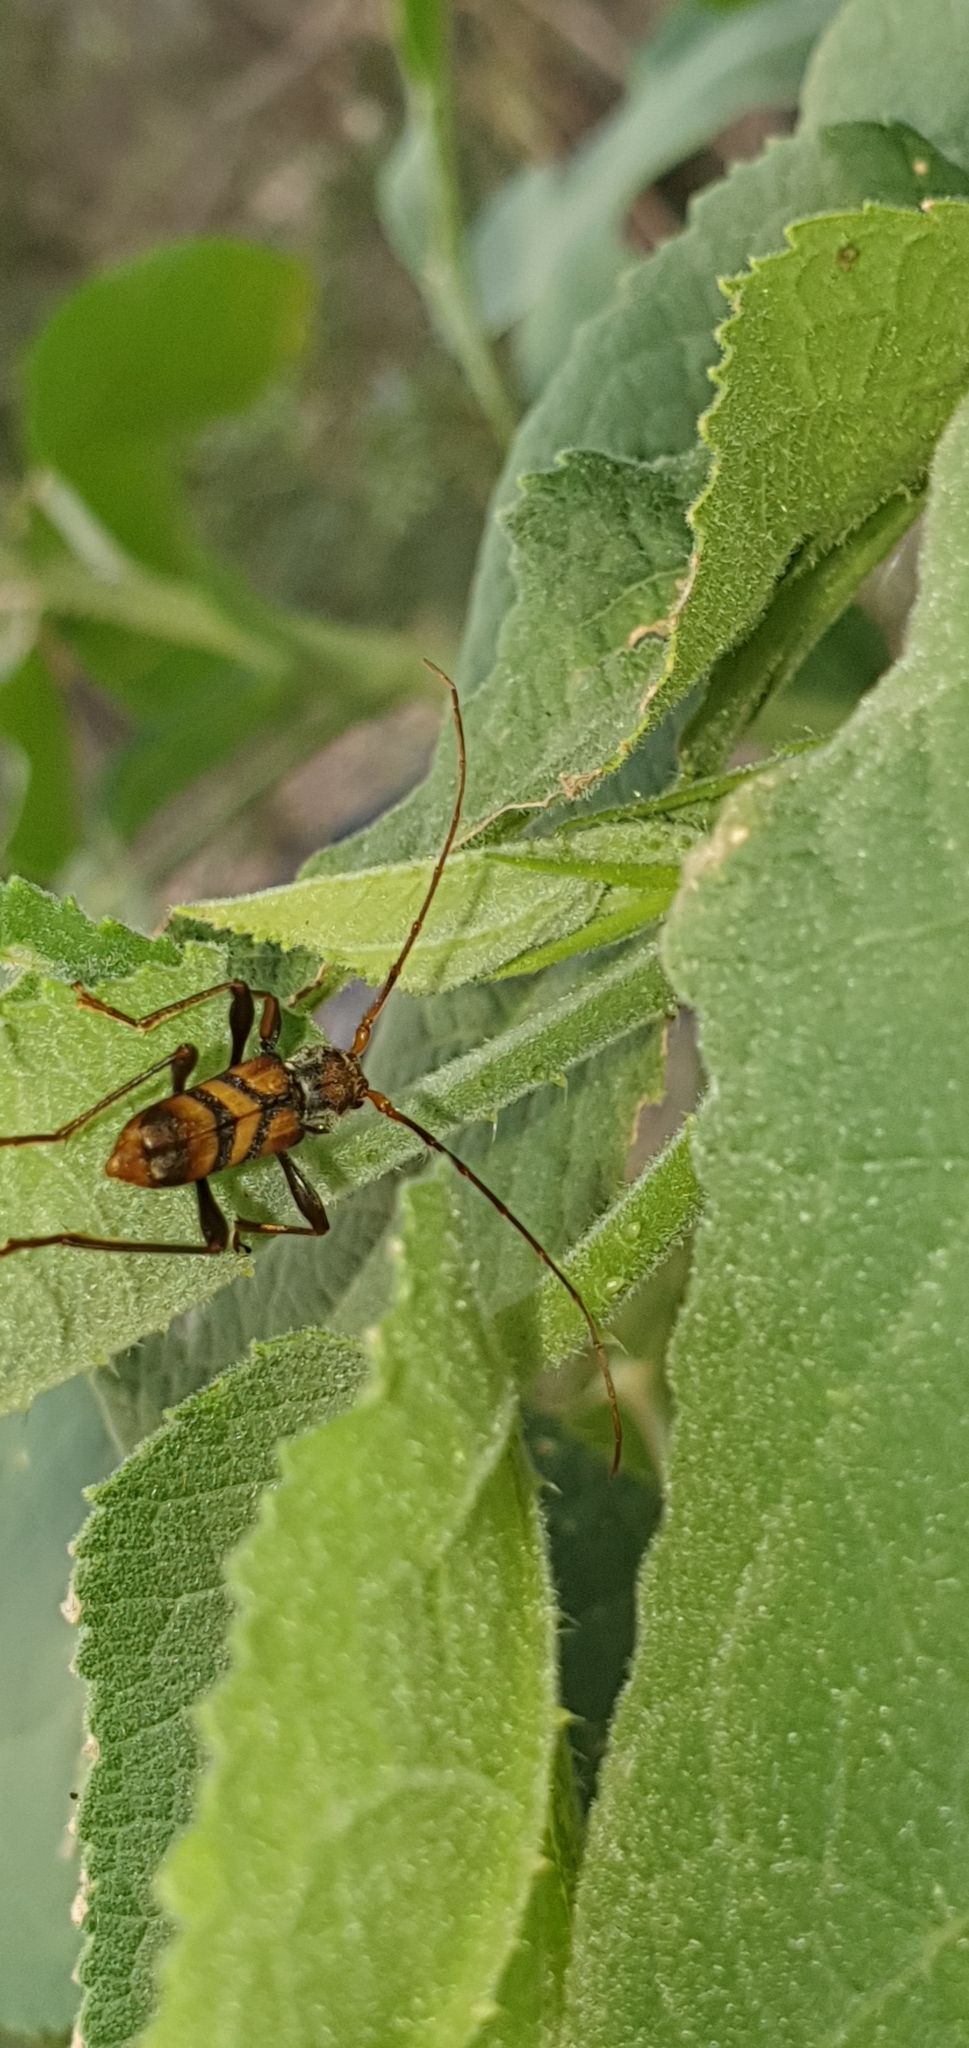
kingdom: Animalia
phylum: Arthropoda
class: Insecta
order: Coleoptera
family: Cerambycidae
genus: Aridaeus
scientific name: Aridaeus thoracicus
